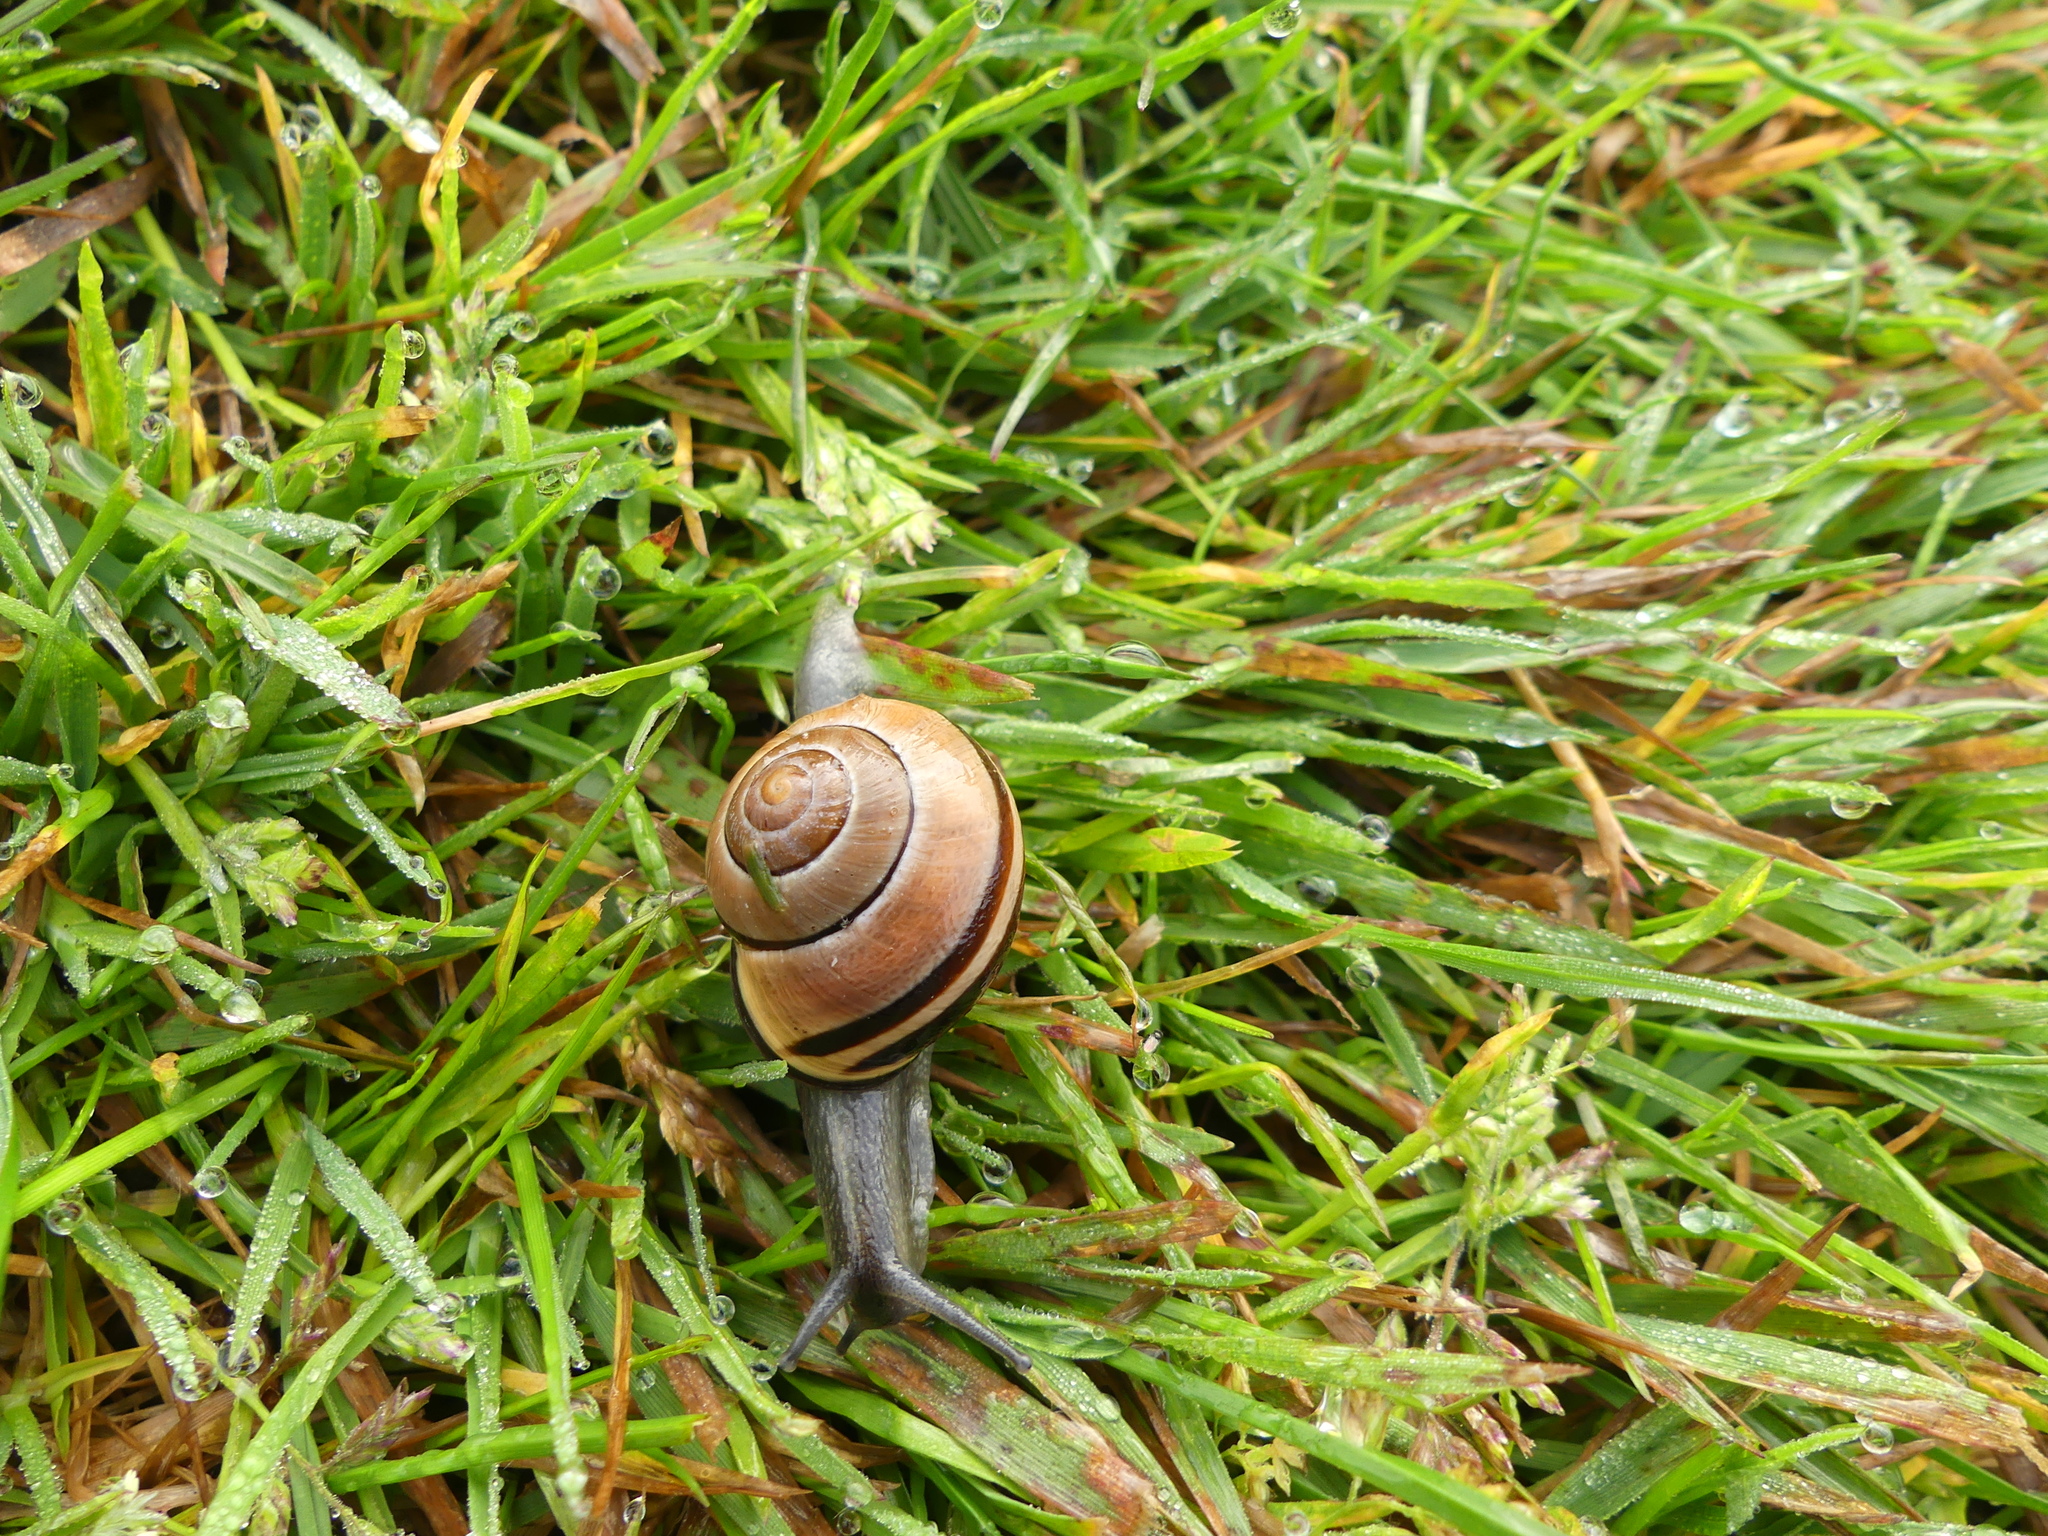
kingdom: Animalia
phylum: Mollusca
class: Gastropoda
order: Stylommatophora
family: Helicidae
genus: Cepaea
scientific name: Cepaea nemoralis
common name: Grovesnail
